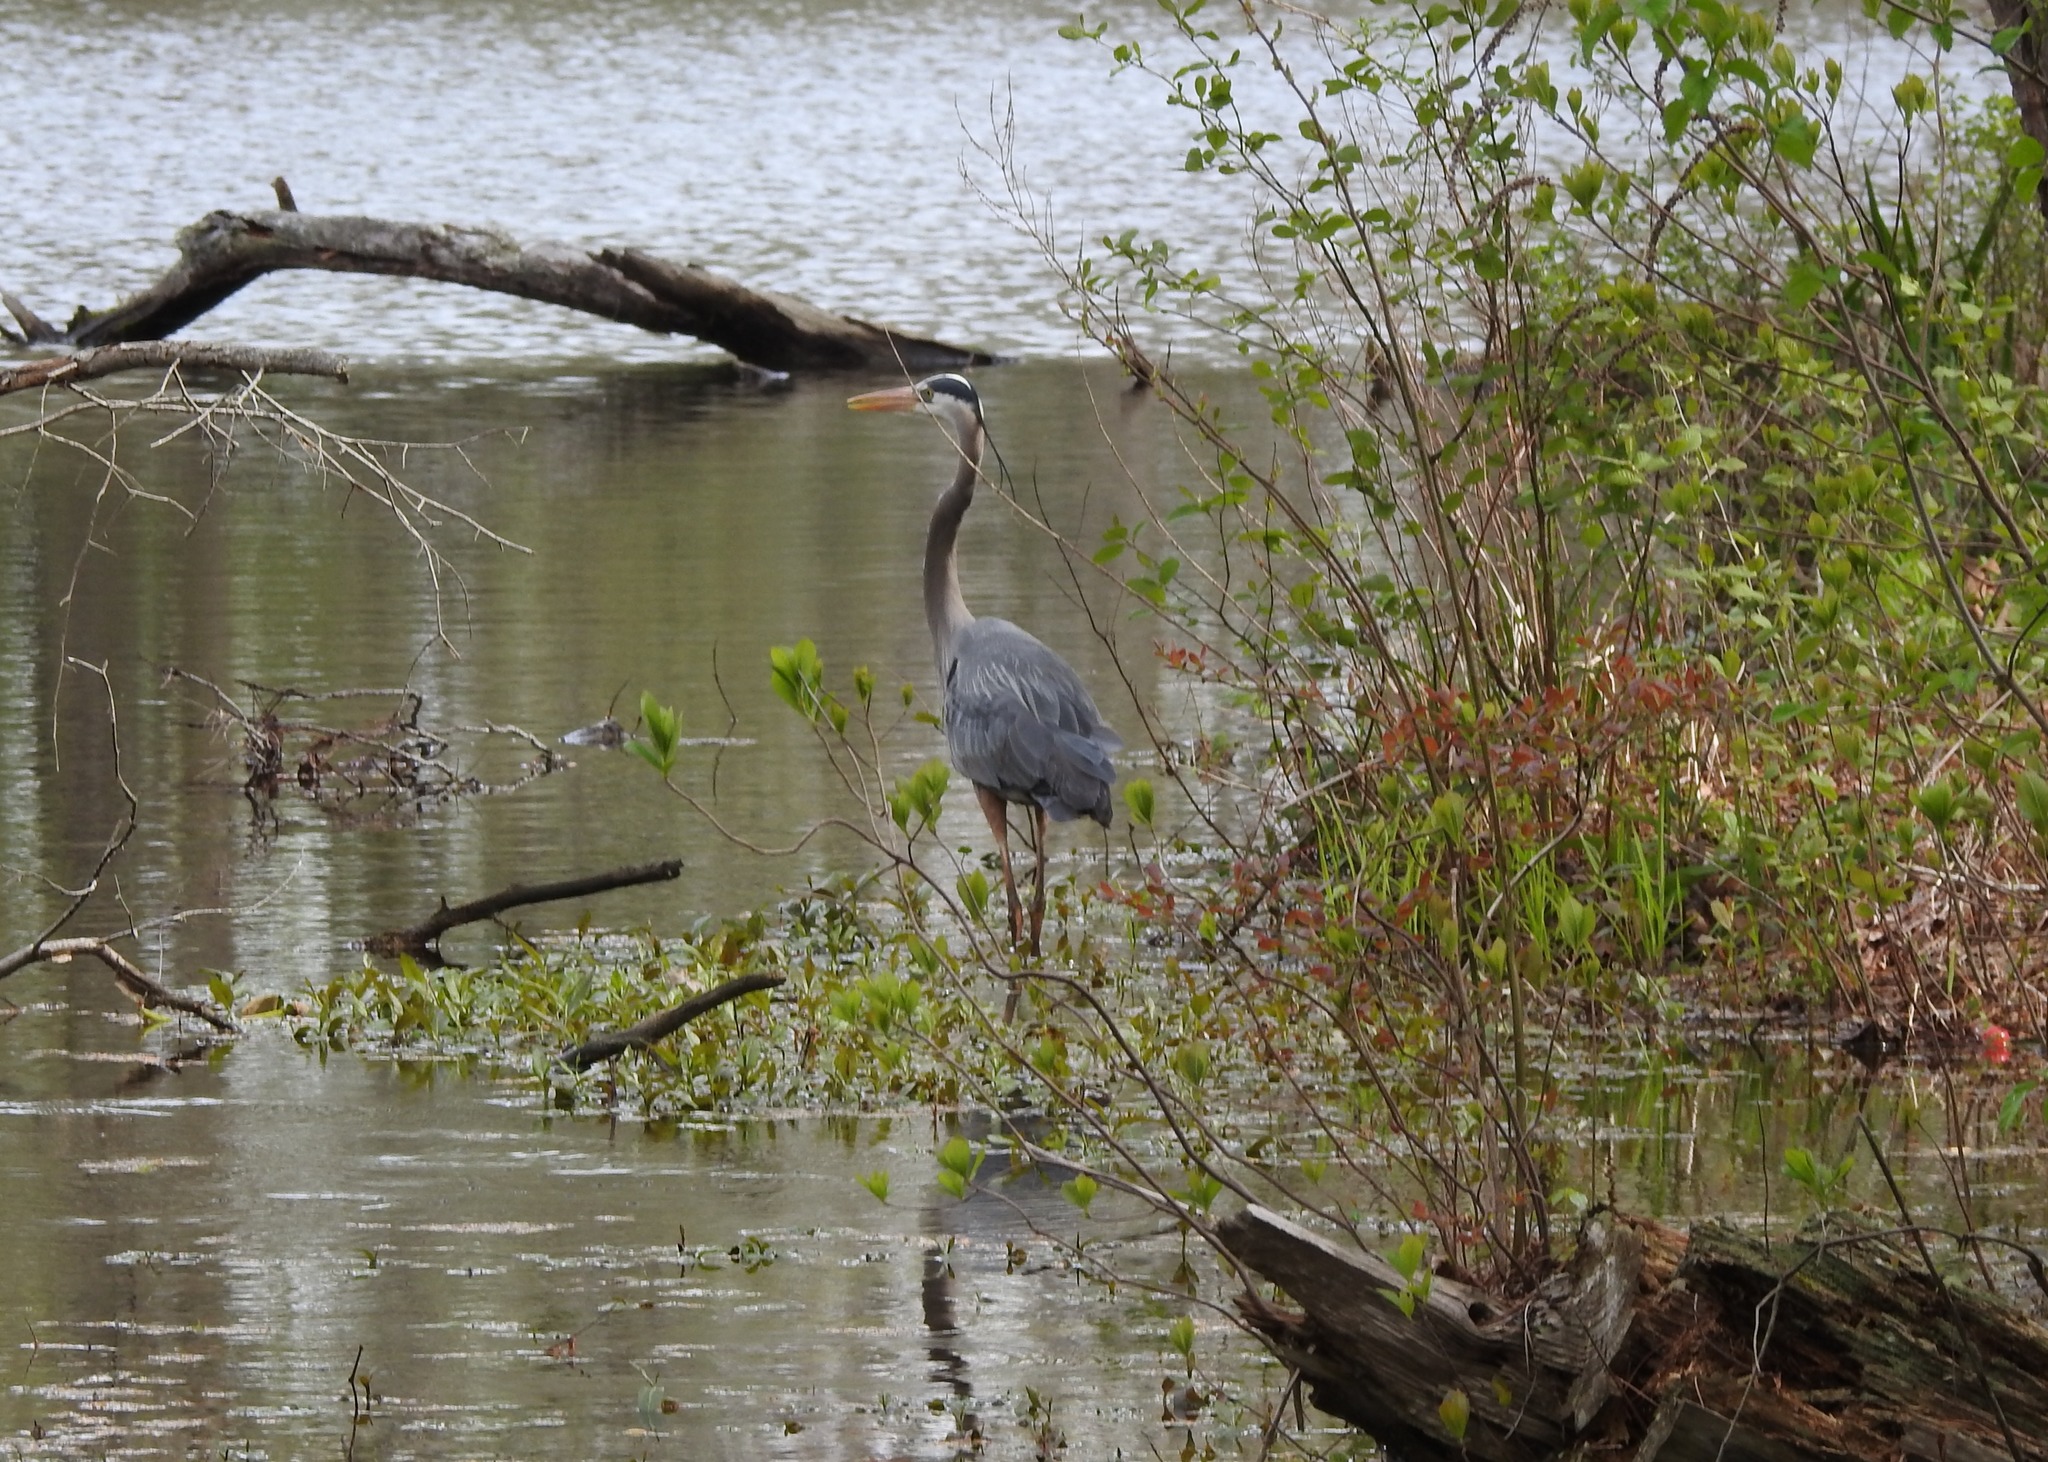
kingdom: Animalia
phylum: Chordata
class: Aves
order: Pelecaniformes
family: Ardeidae
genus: Ardea
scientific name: Ardea herodias
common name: Great blue heron
